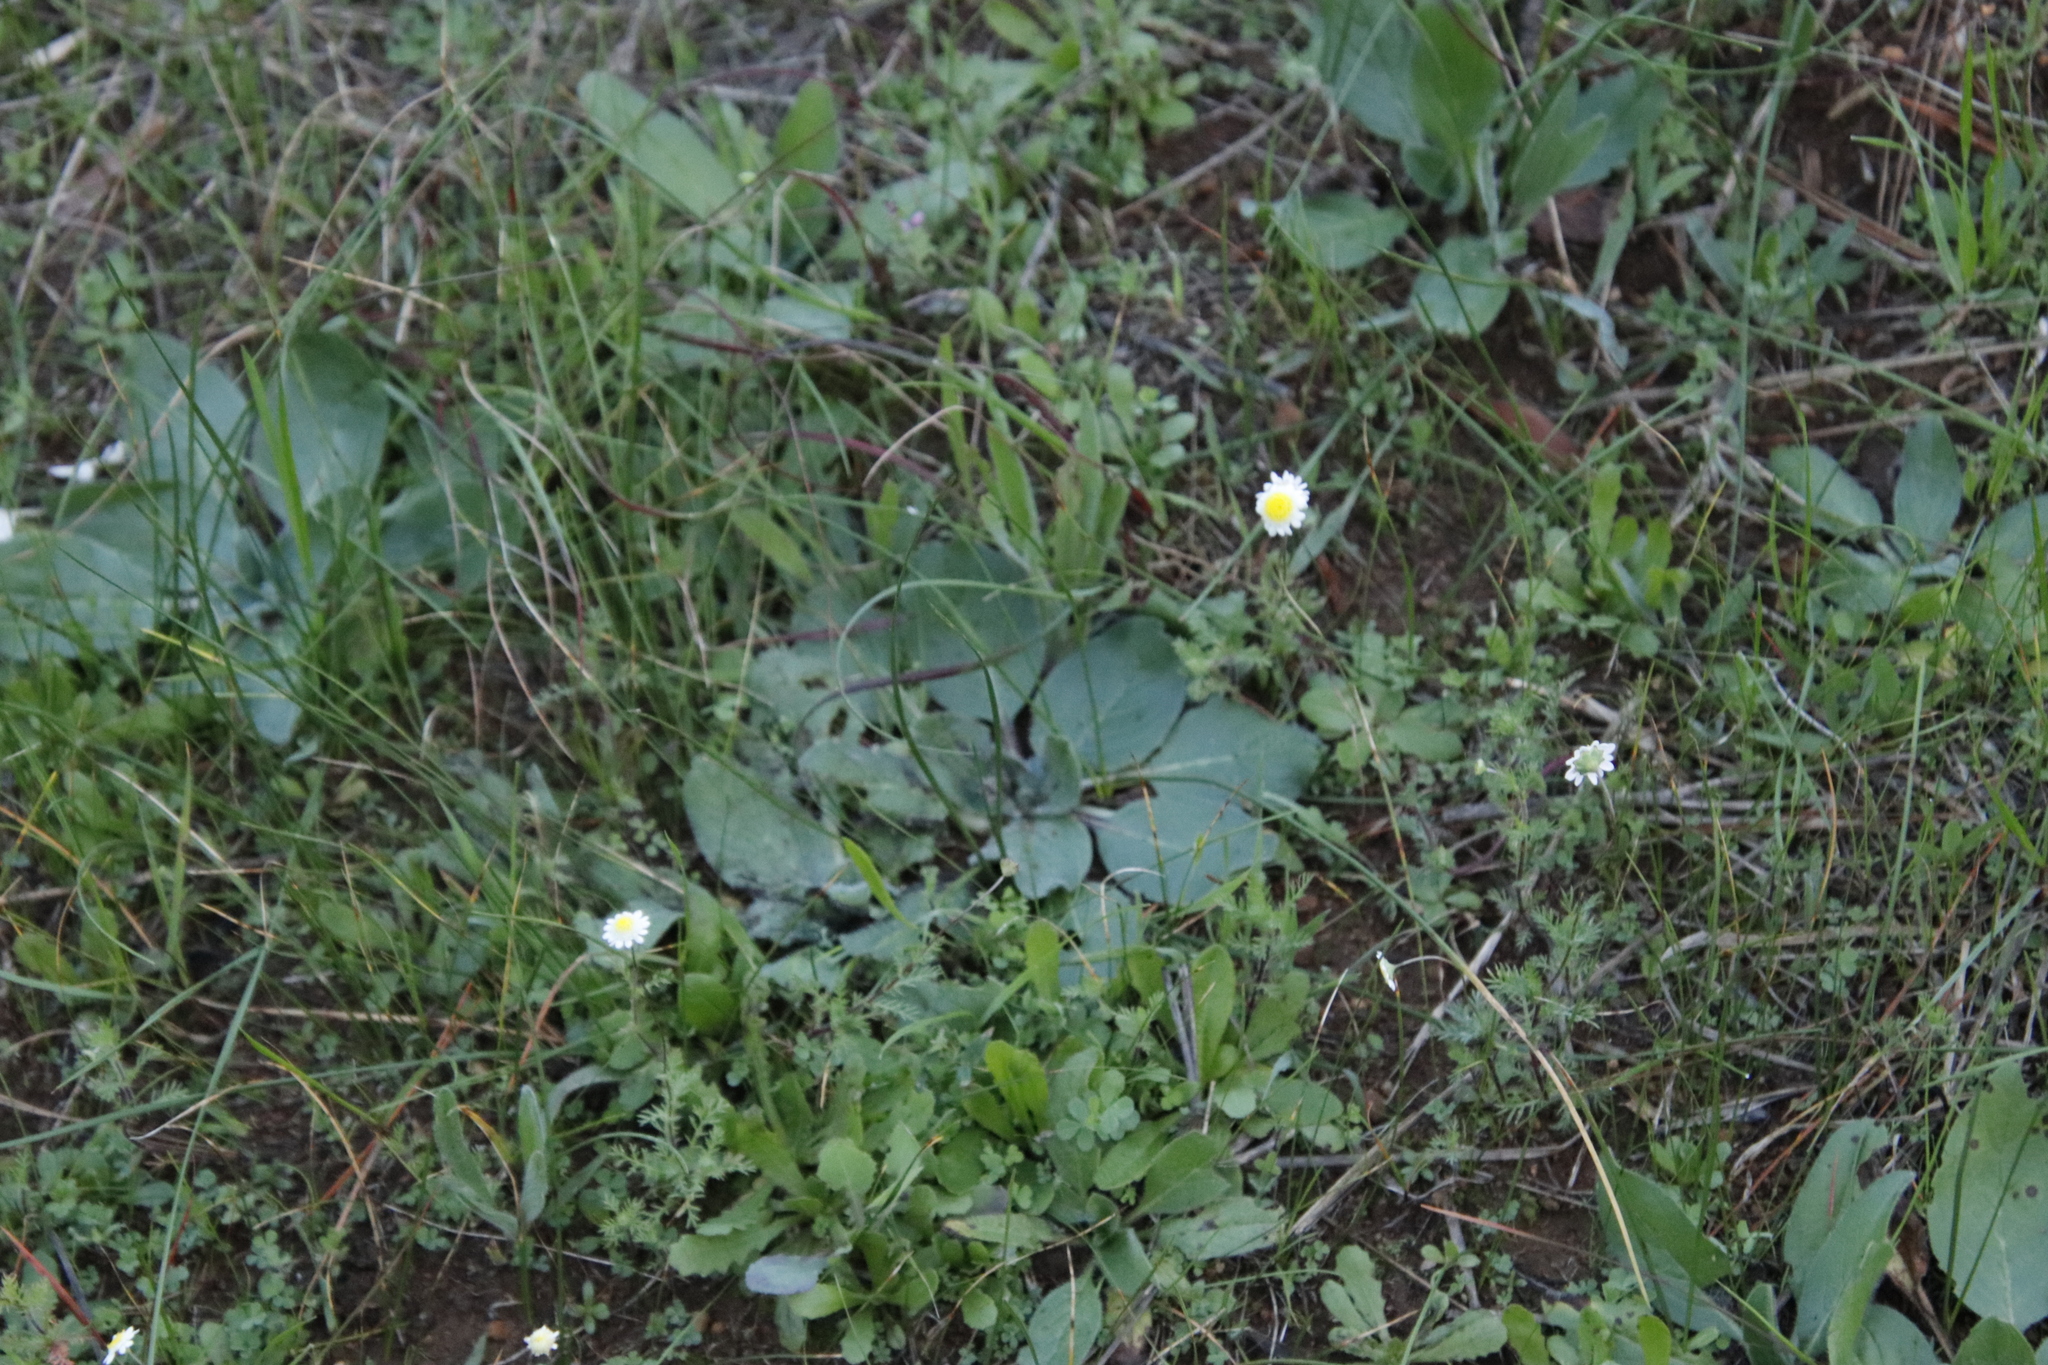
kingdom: Plantae
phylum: Tracheophyta
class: Magnoliopsida
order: Asterales
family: Asteraceae
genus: Cotula
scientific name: Cotula turbinata
